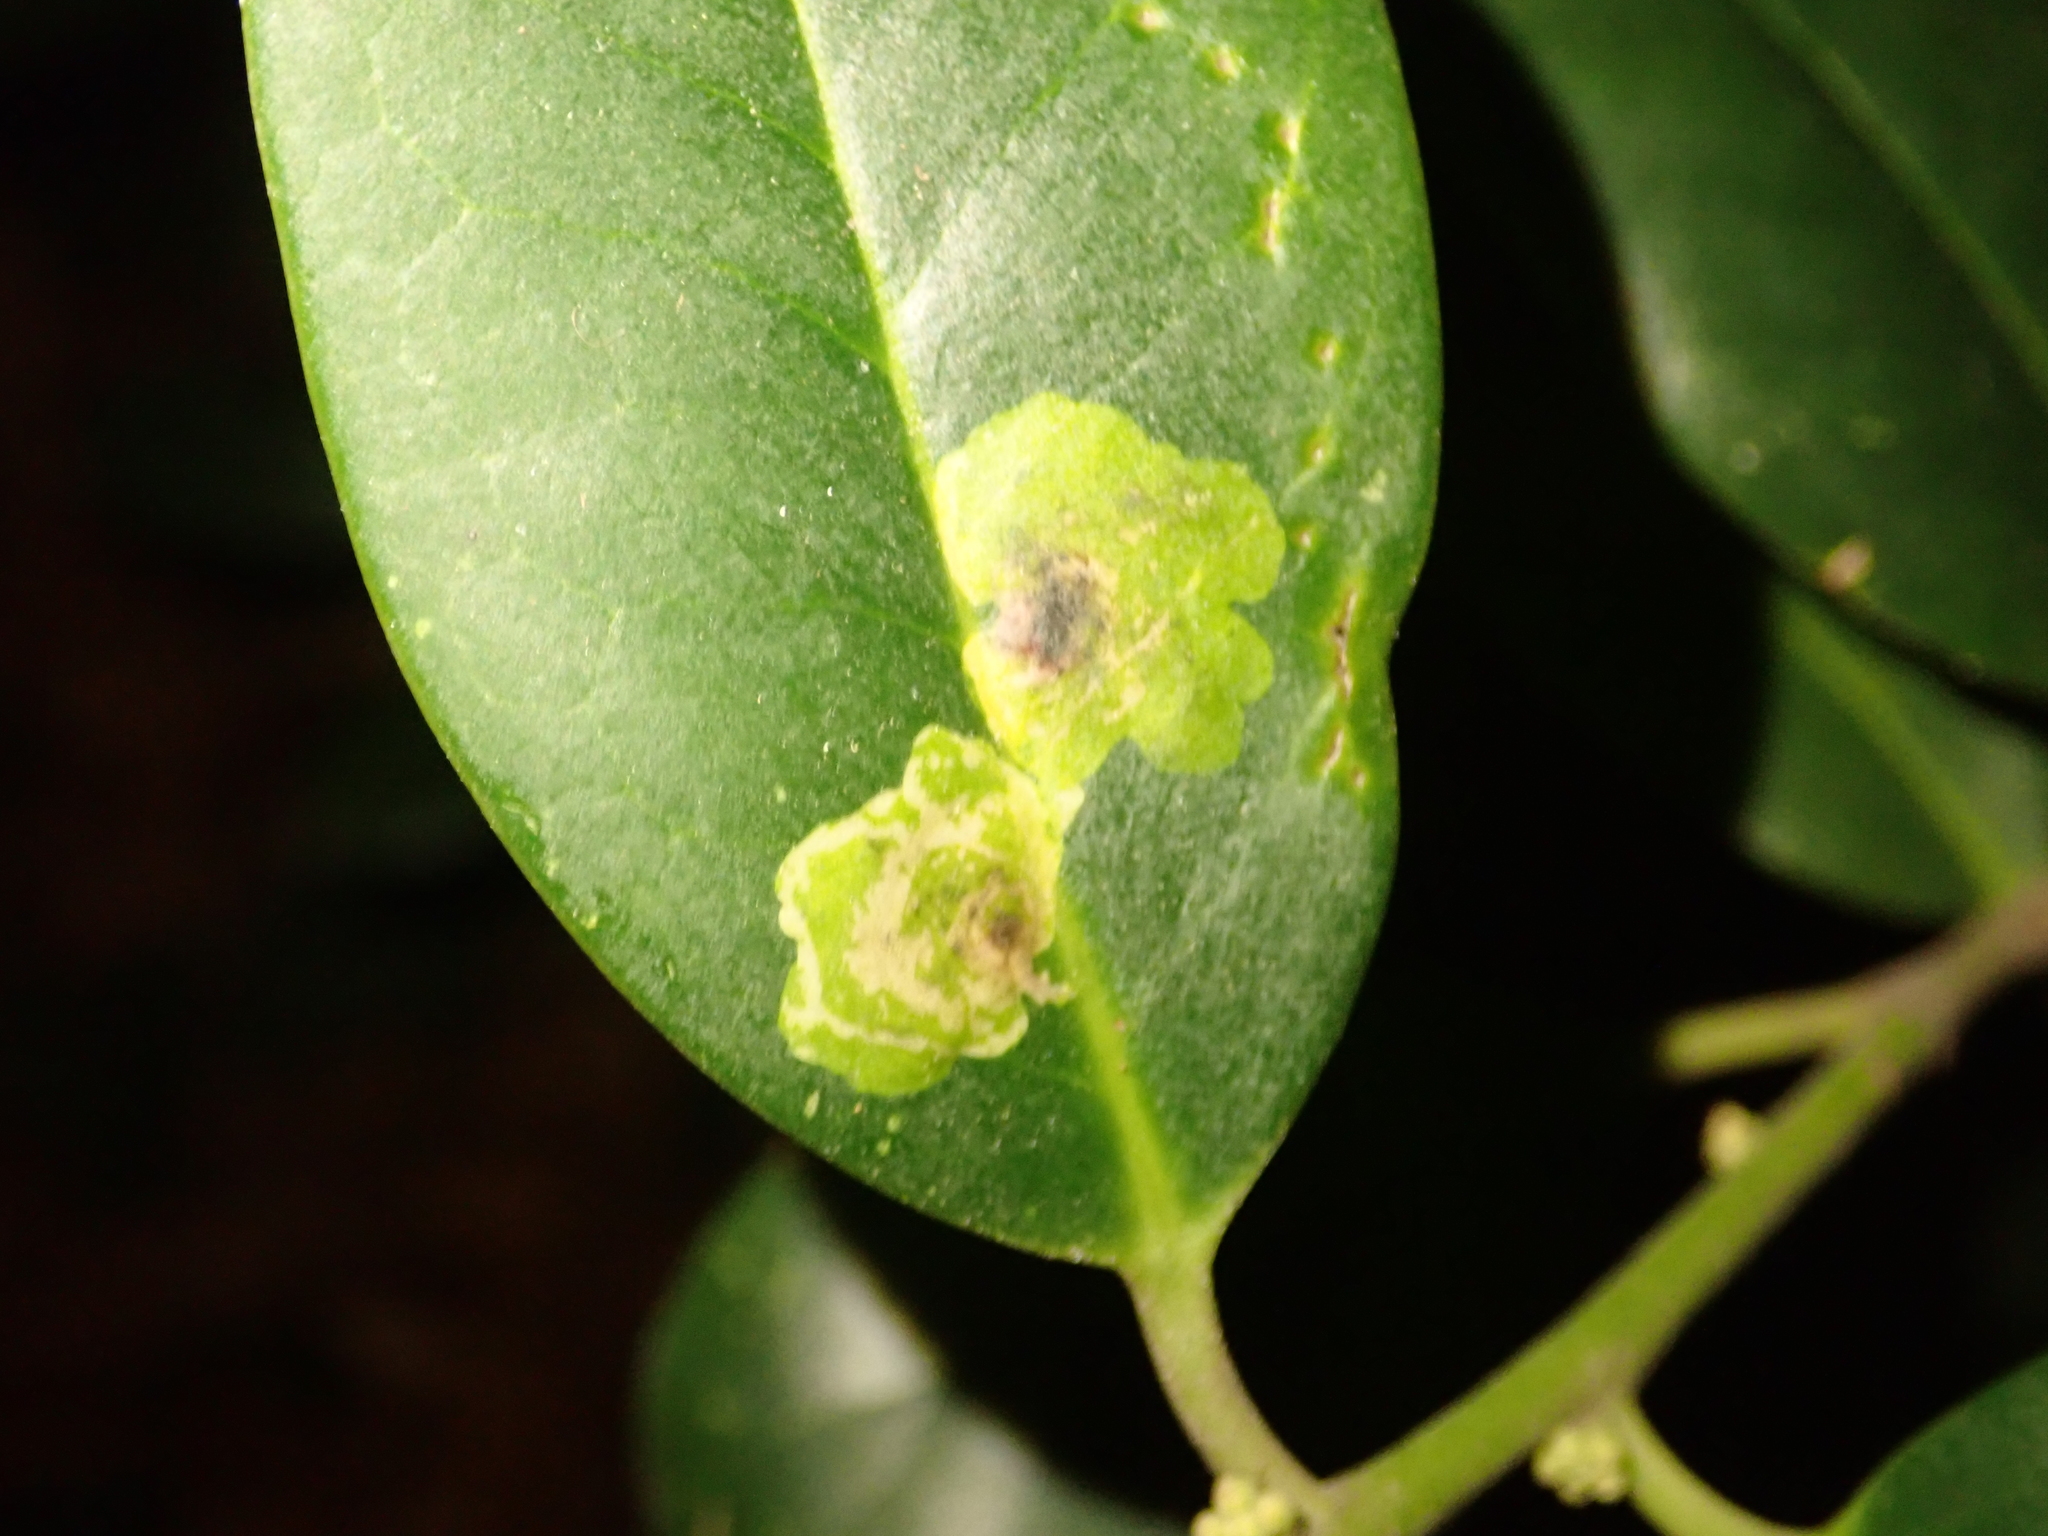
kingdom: Animalia
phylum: Arthropoda
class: Insecta
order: Diptera
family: Agromyzidae
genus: Phytomyza
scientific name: Phytomyza ilicis
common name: Holly leafminer
